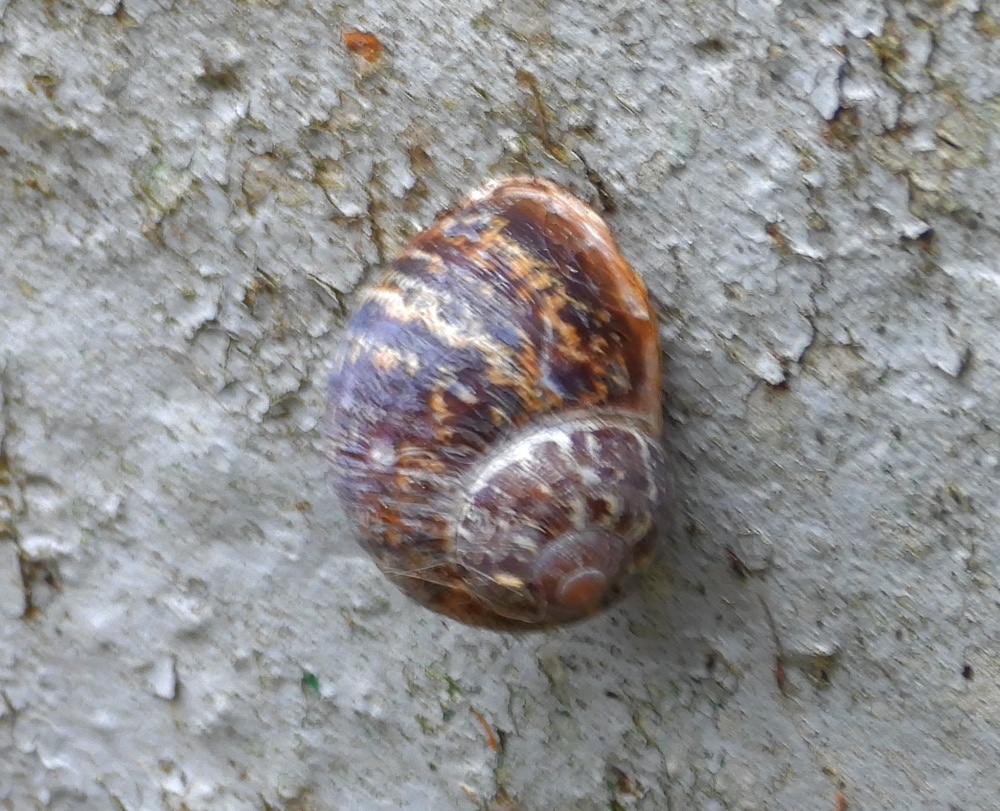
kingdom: Animalia
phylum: Mollusca
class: Gastropoda
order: Stylommatophora
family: Helicidae
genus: Cornu
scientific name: Cornu aspersum
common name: Brown garden snail
